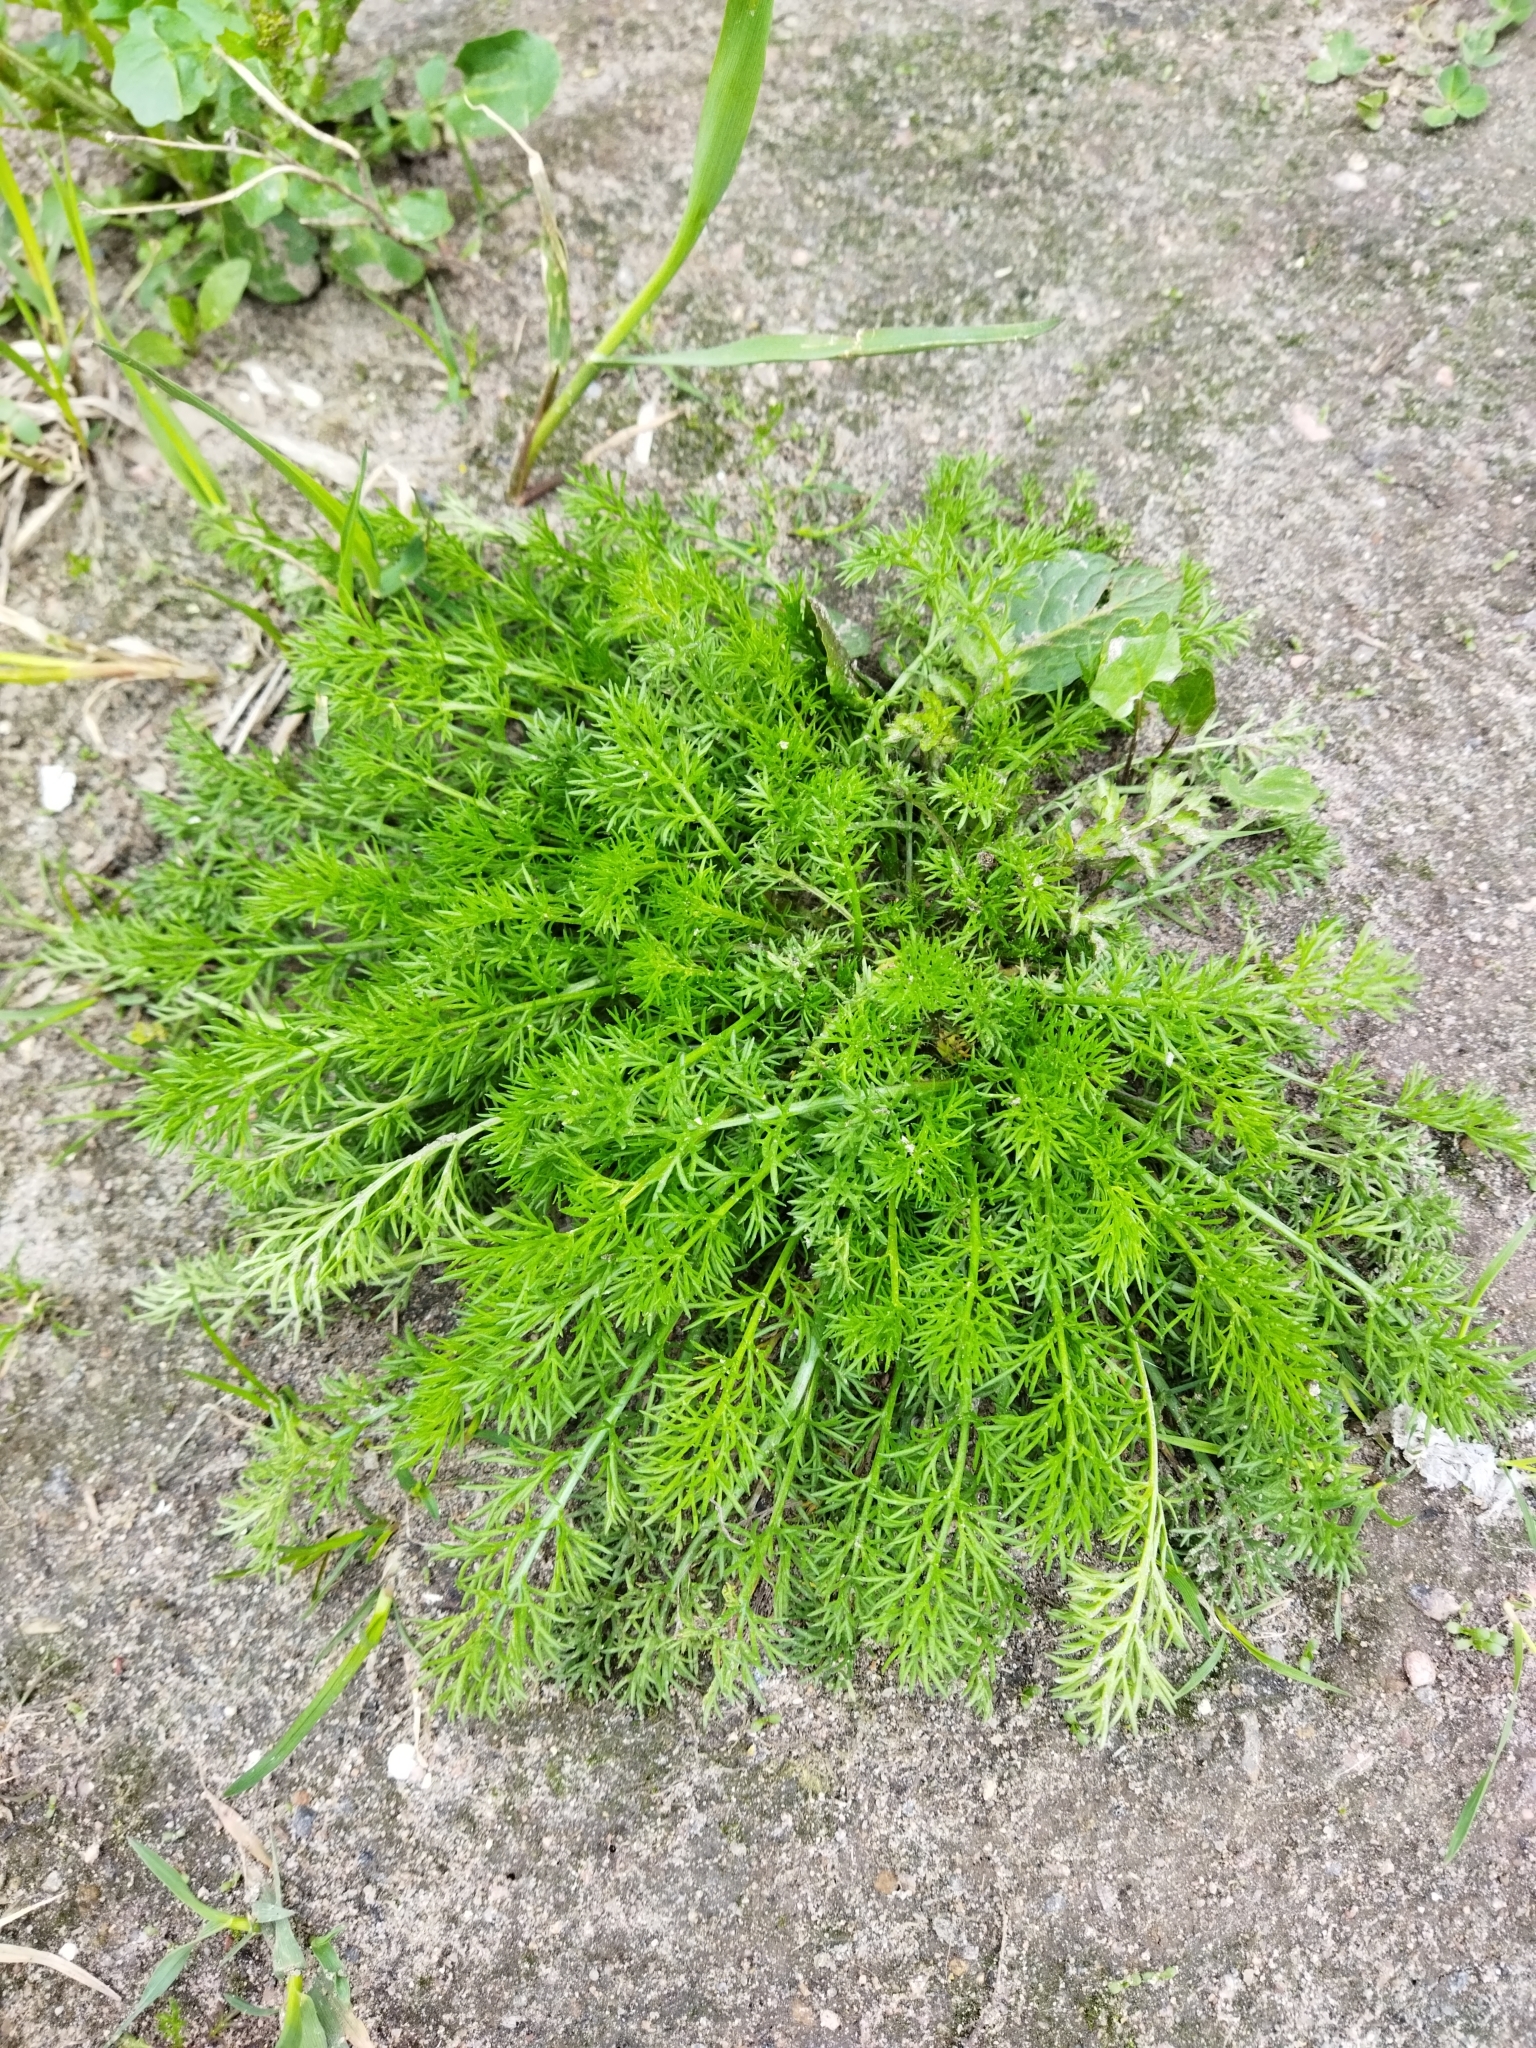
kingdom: Plantae
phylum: Tracheophyta
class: Magnoliopsida
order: Asterales
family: Asteraceae
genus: Tripleurospermum
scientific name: Tripleurospermum inodorum
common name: Scentless mayweed
